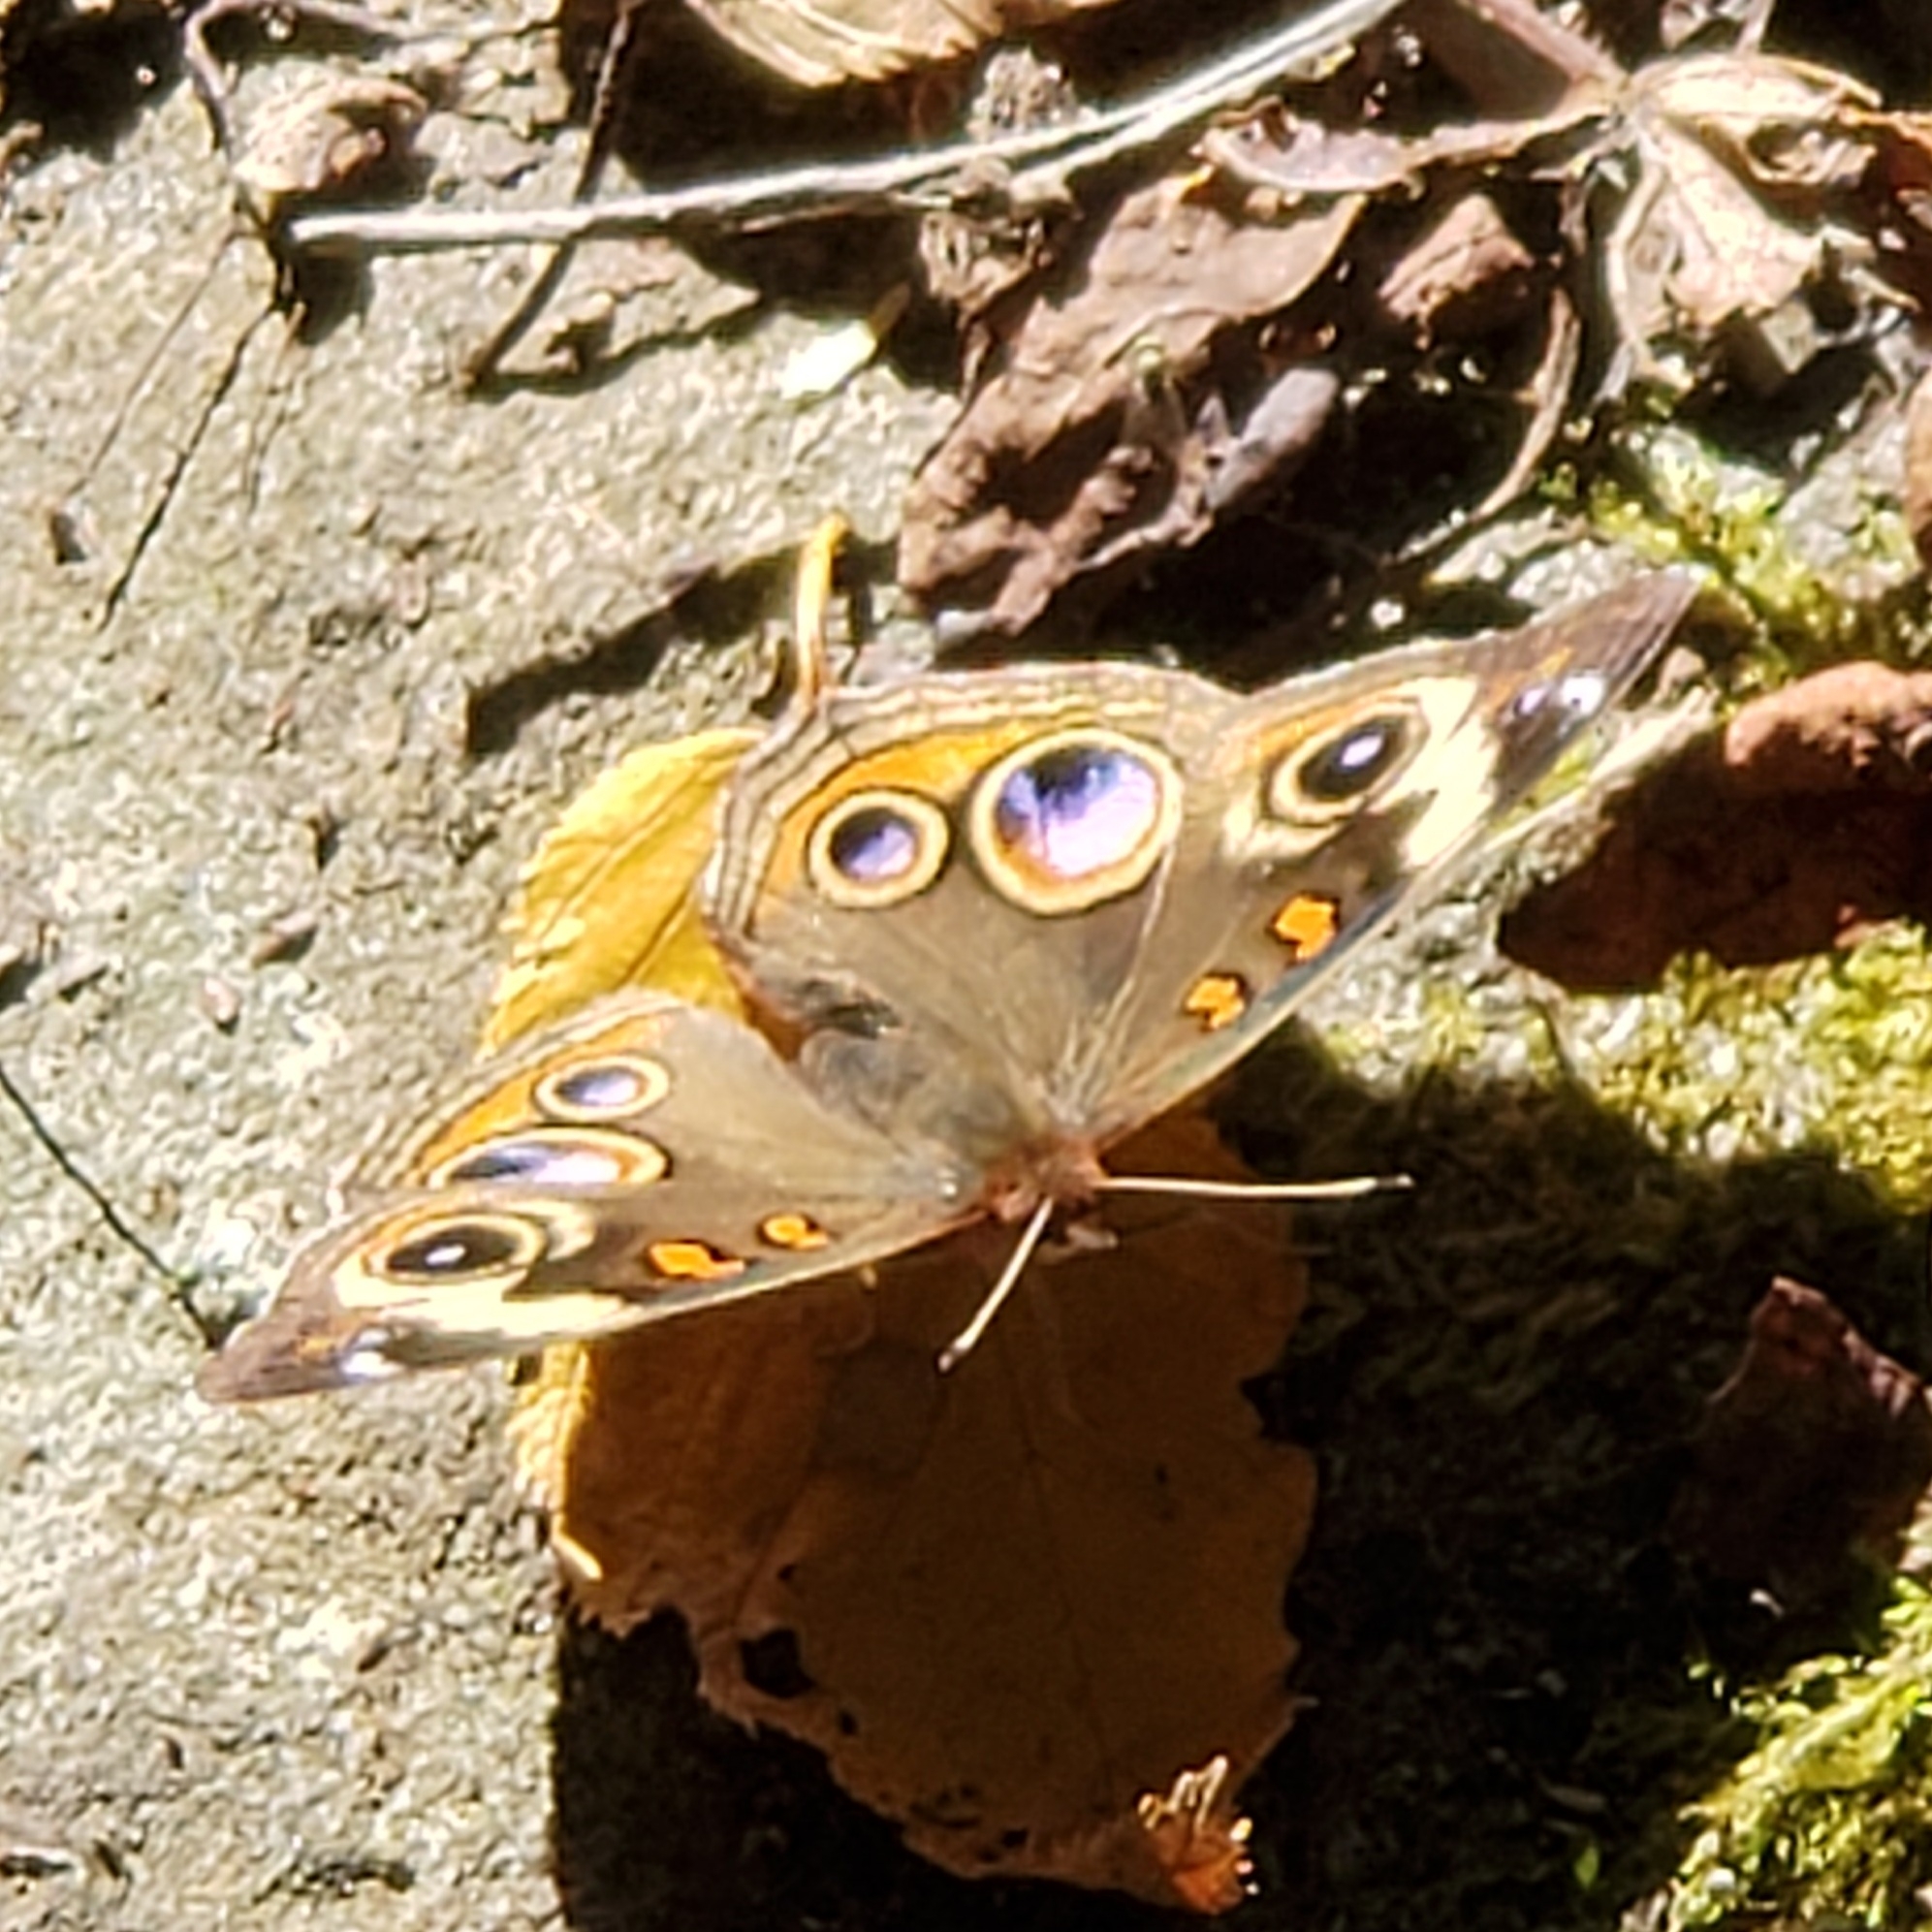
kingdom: Animalia
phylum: Arthropoda
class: Insecta
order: Lepidoptera
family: Nymphalidae
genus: Junonia
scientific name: Junonia coenia
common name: Common buckeye
